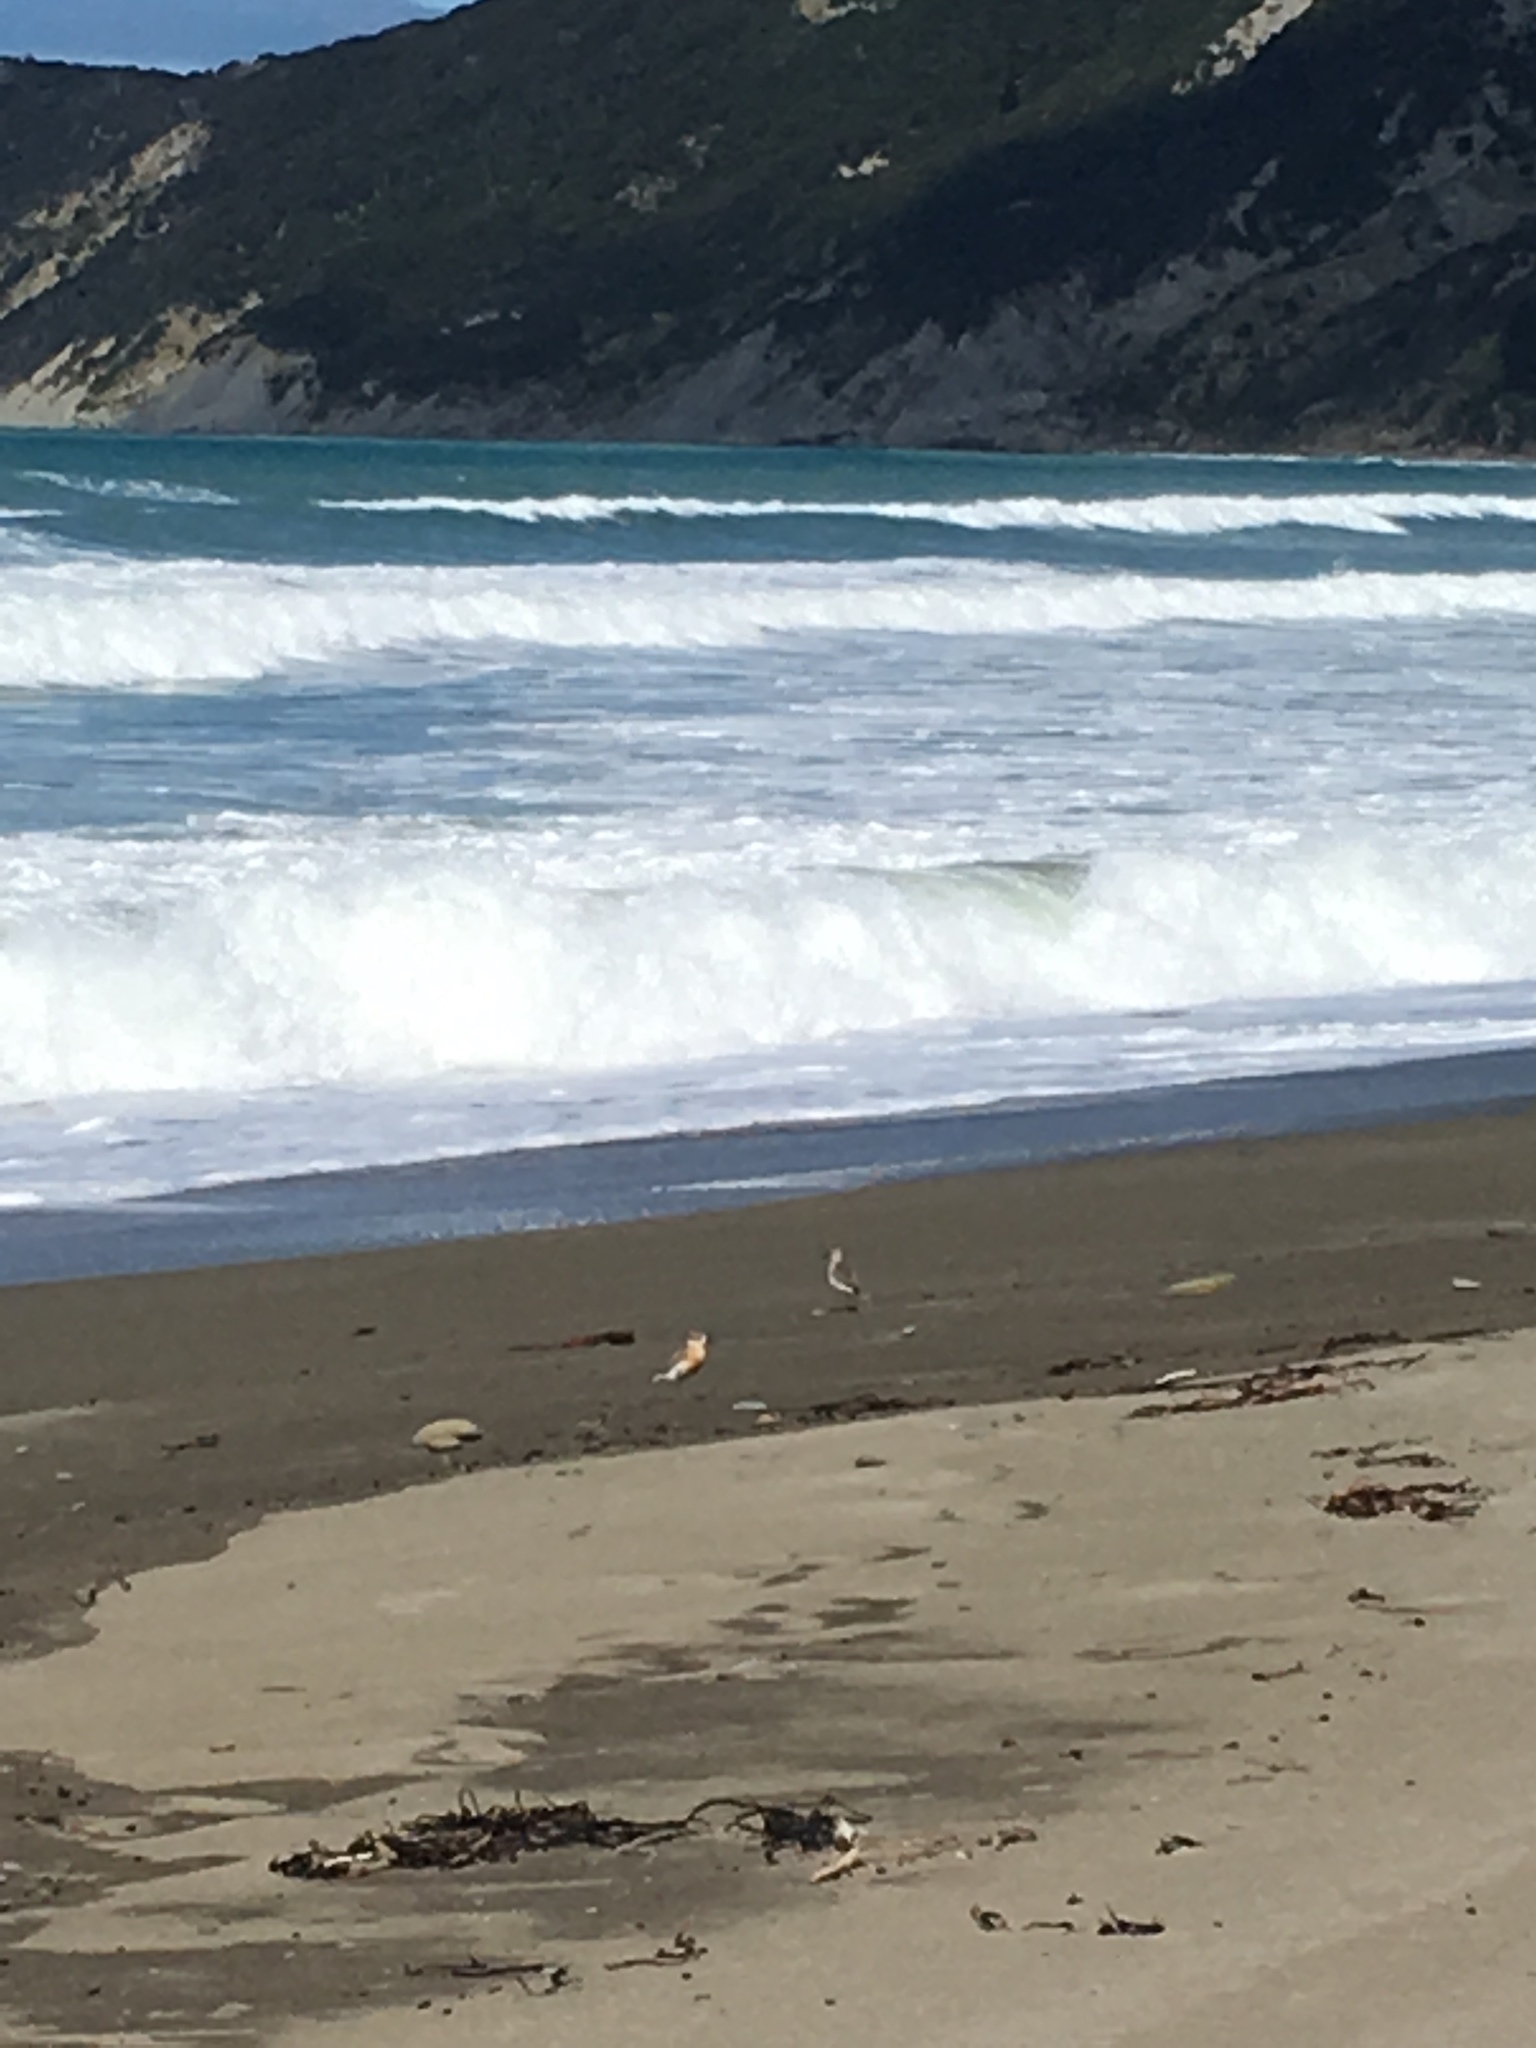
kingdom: Animalia
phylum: Chordata
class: Aves
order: Charadriiformes
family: Charadriidae
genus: Anarhynchus
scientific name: Anarhynchus
